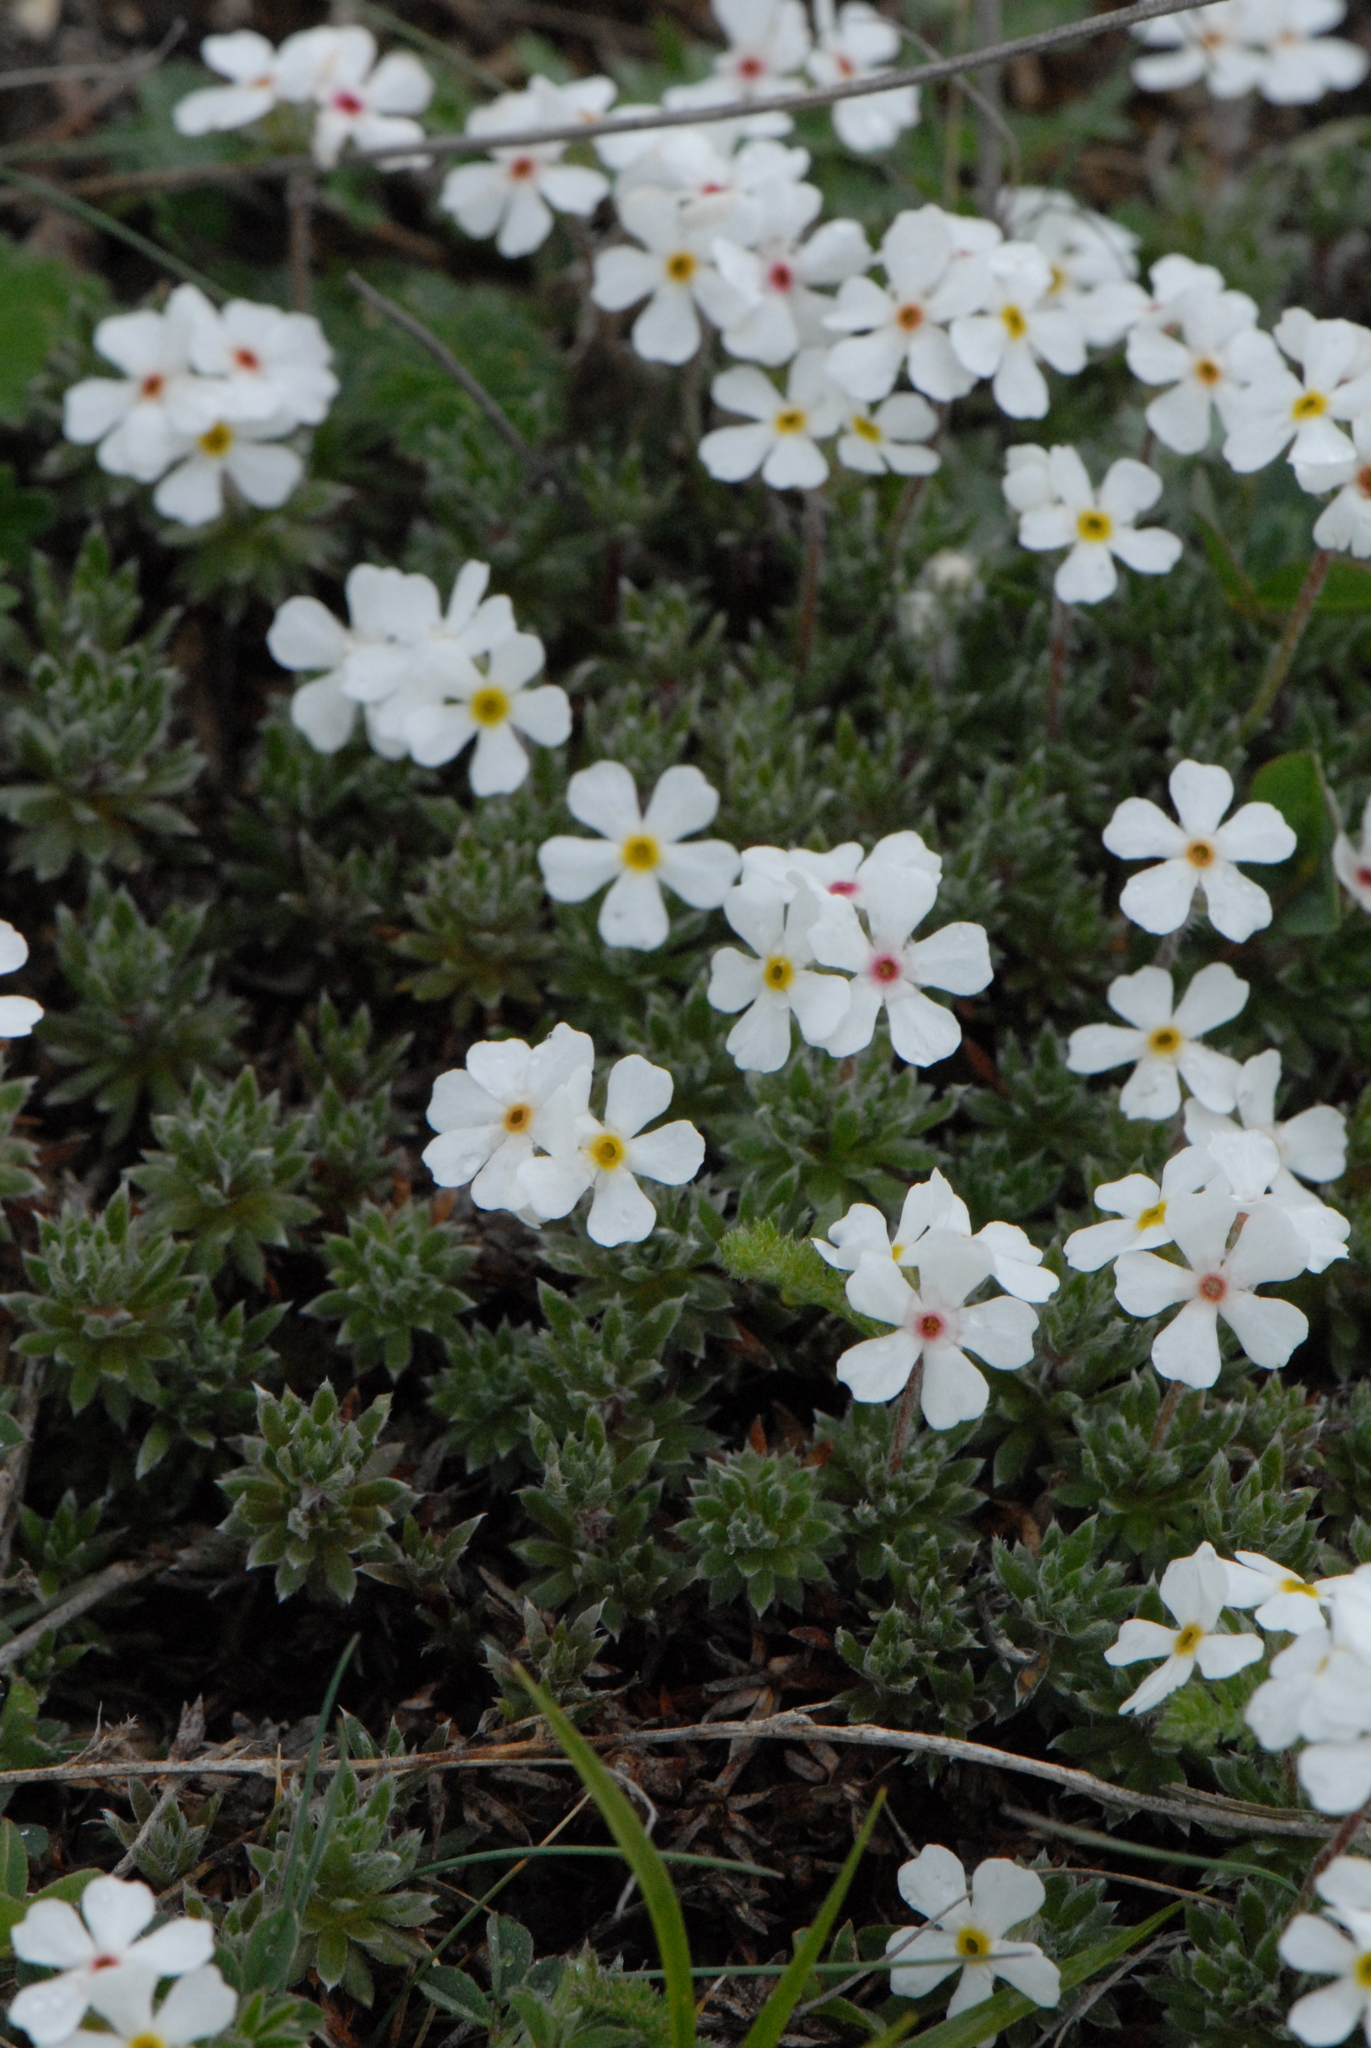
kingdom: Plantae
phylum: Tracheophyta
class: Magnoliopsida
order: Ericales
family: Primulaceae
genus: Androsace
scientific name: Androsace villosa
